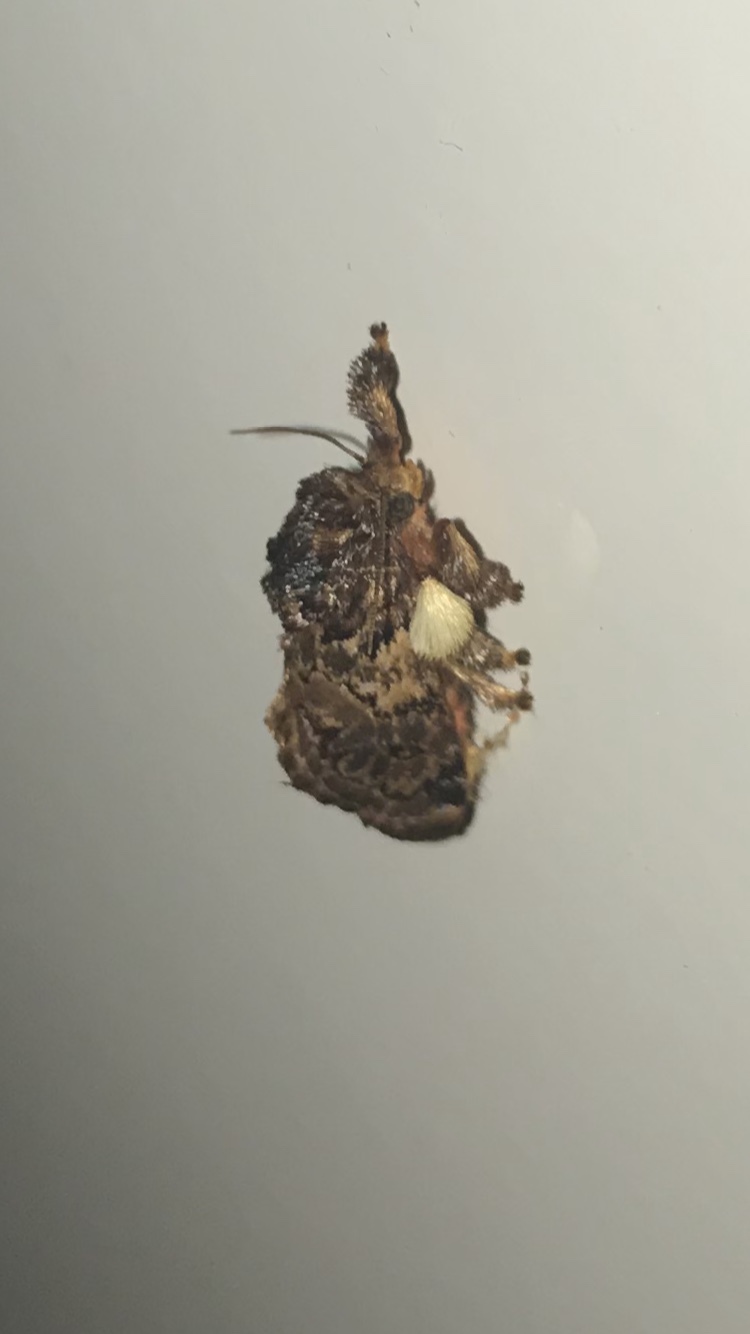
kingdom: Animalia
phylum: Arthropoda
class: Insecta
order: Lepidoptera
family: Limacodidae
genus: Phobetron
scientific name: Phobetron pithecium
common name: Hag moth
